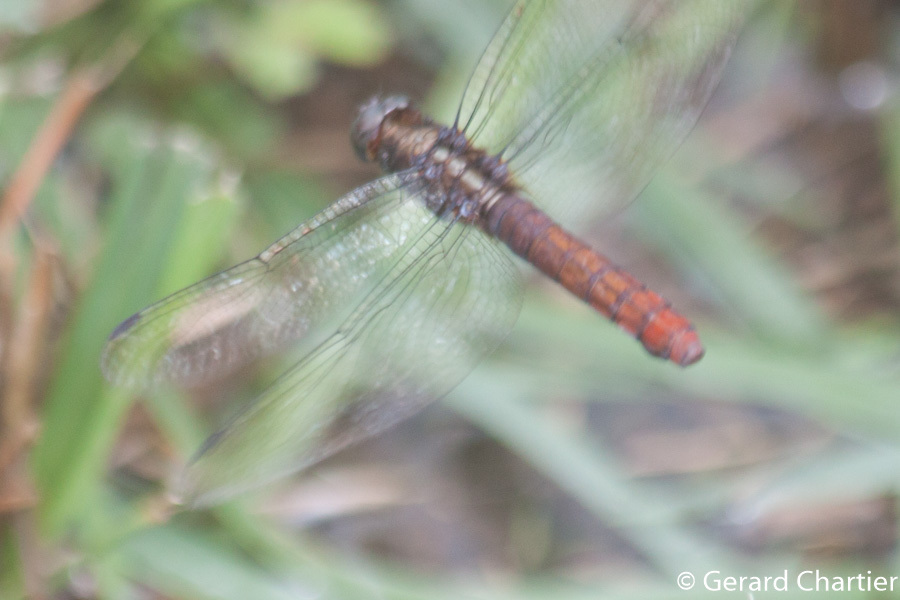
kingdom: Animalia
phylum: Arthropoda
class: Insecta
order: Odonata
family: Libellulidae
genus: Orthetrum
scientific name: Orthetrum chrysis
